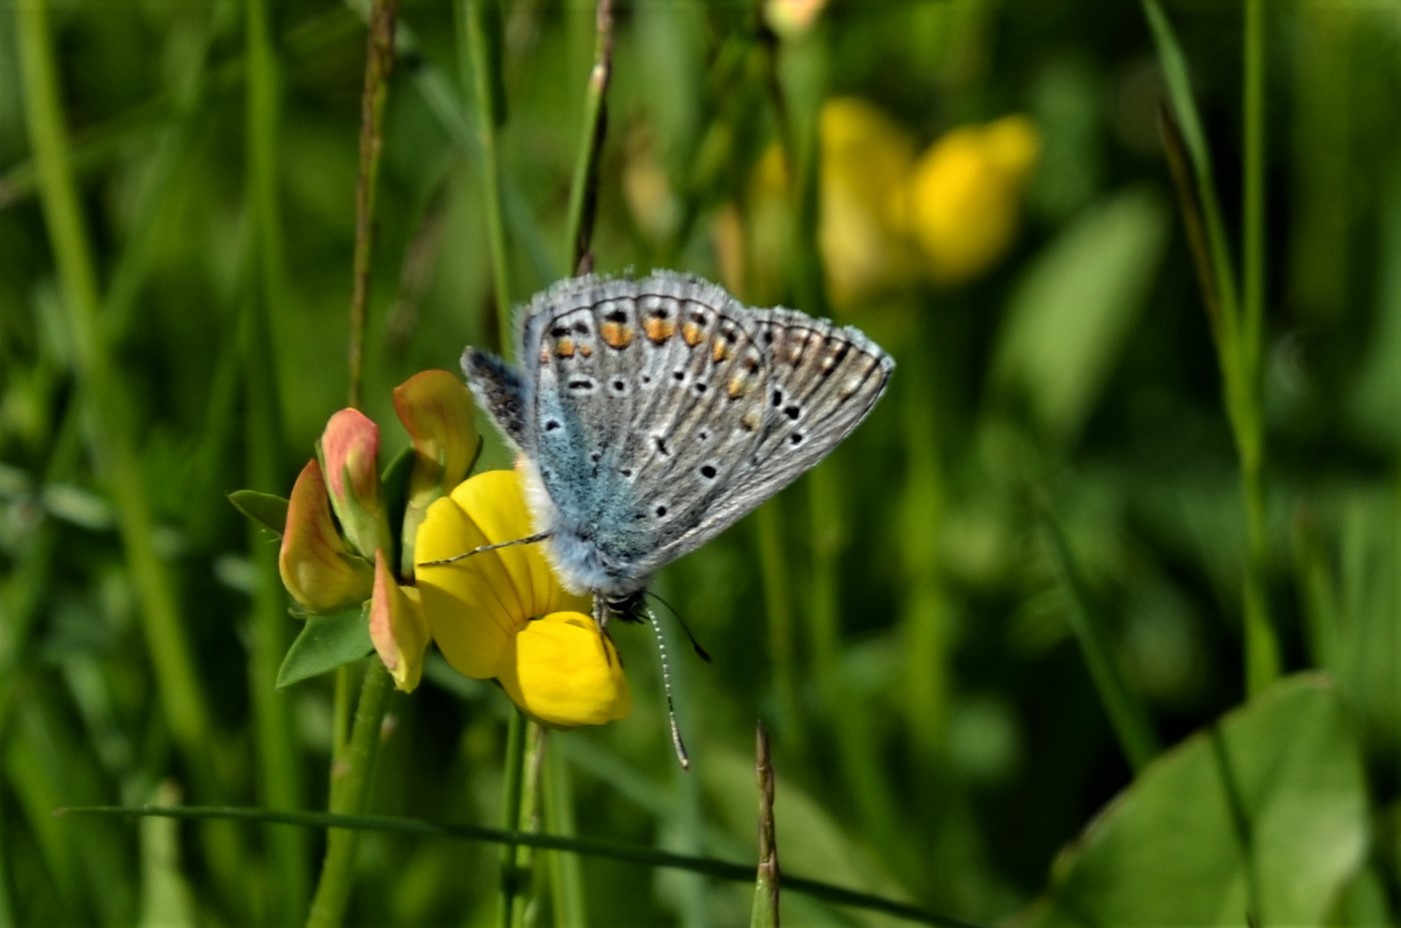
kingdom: Animalia
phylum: Arthropoda
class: Insecta
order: Lepidoptera
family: Lycaenidae
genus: Polyommatus
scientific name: Polyommatus icarus
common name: Common blue
